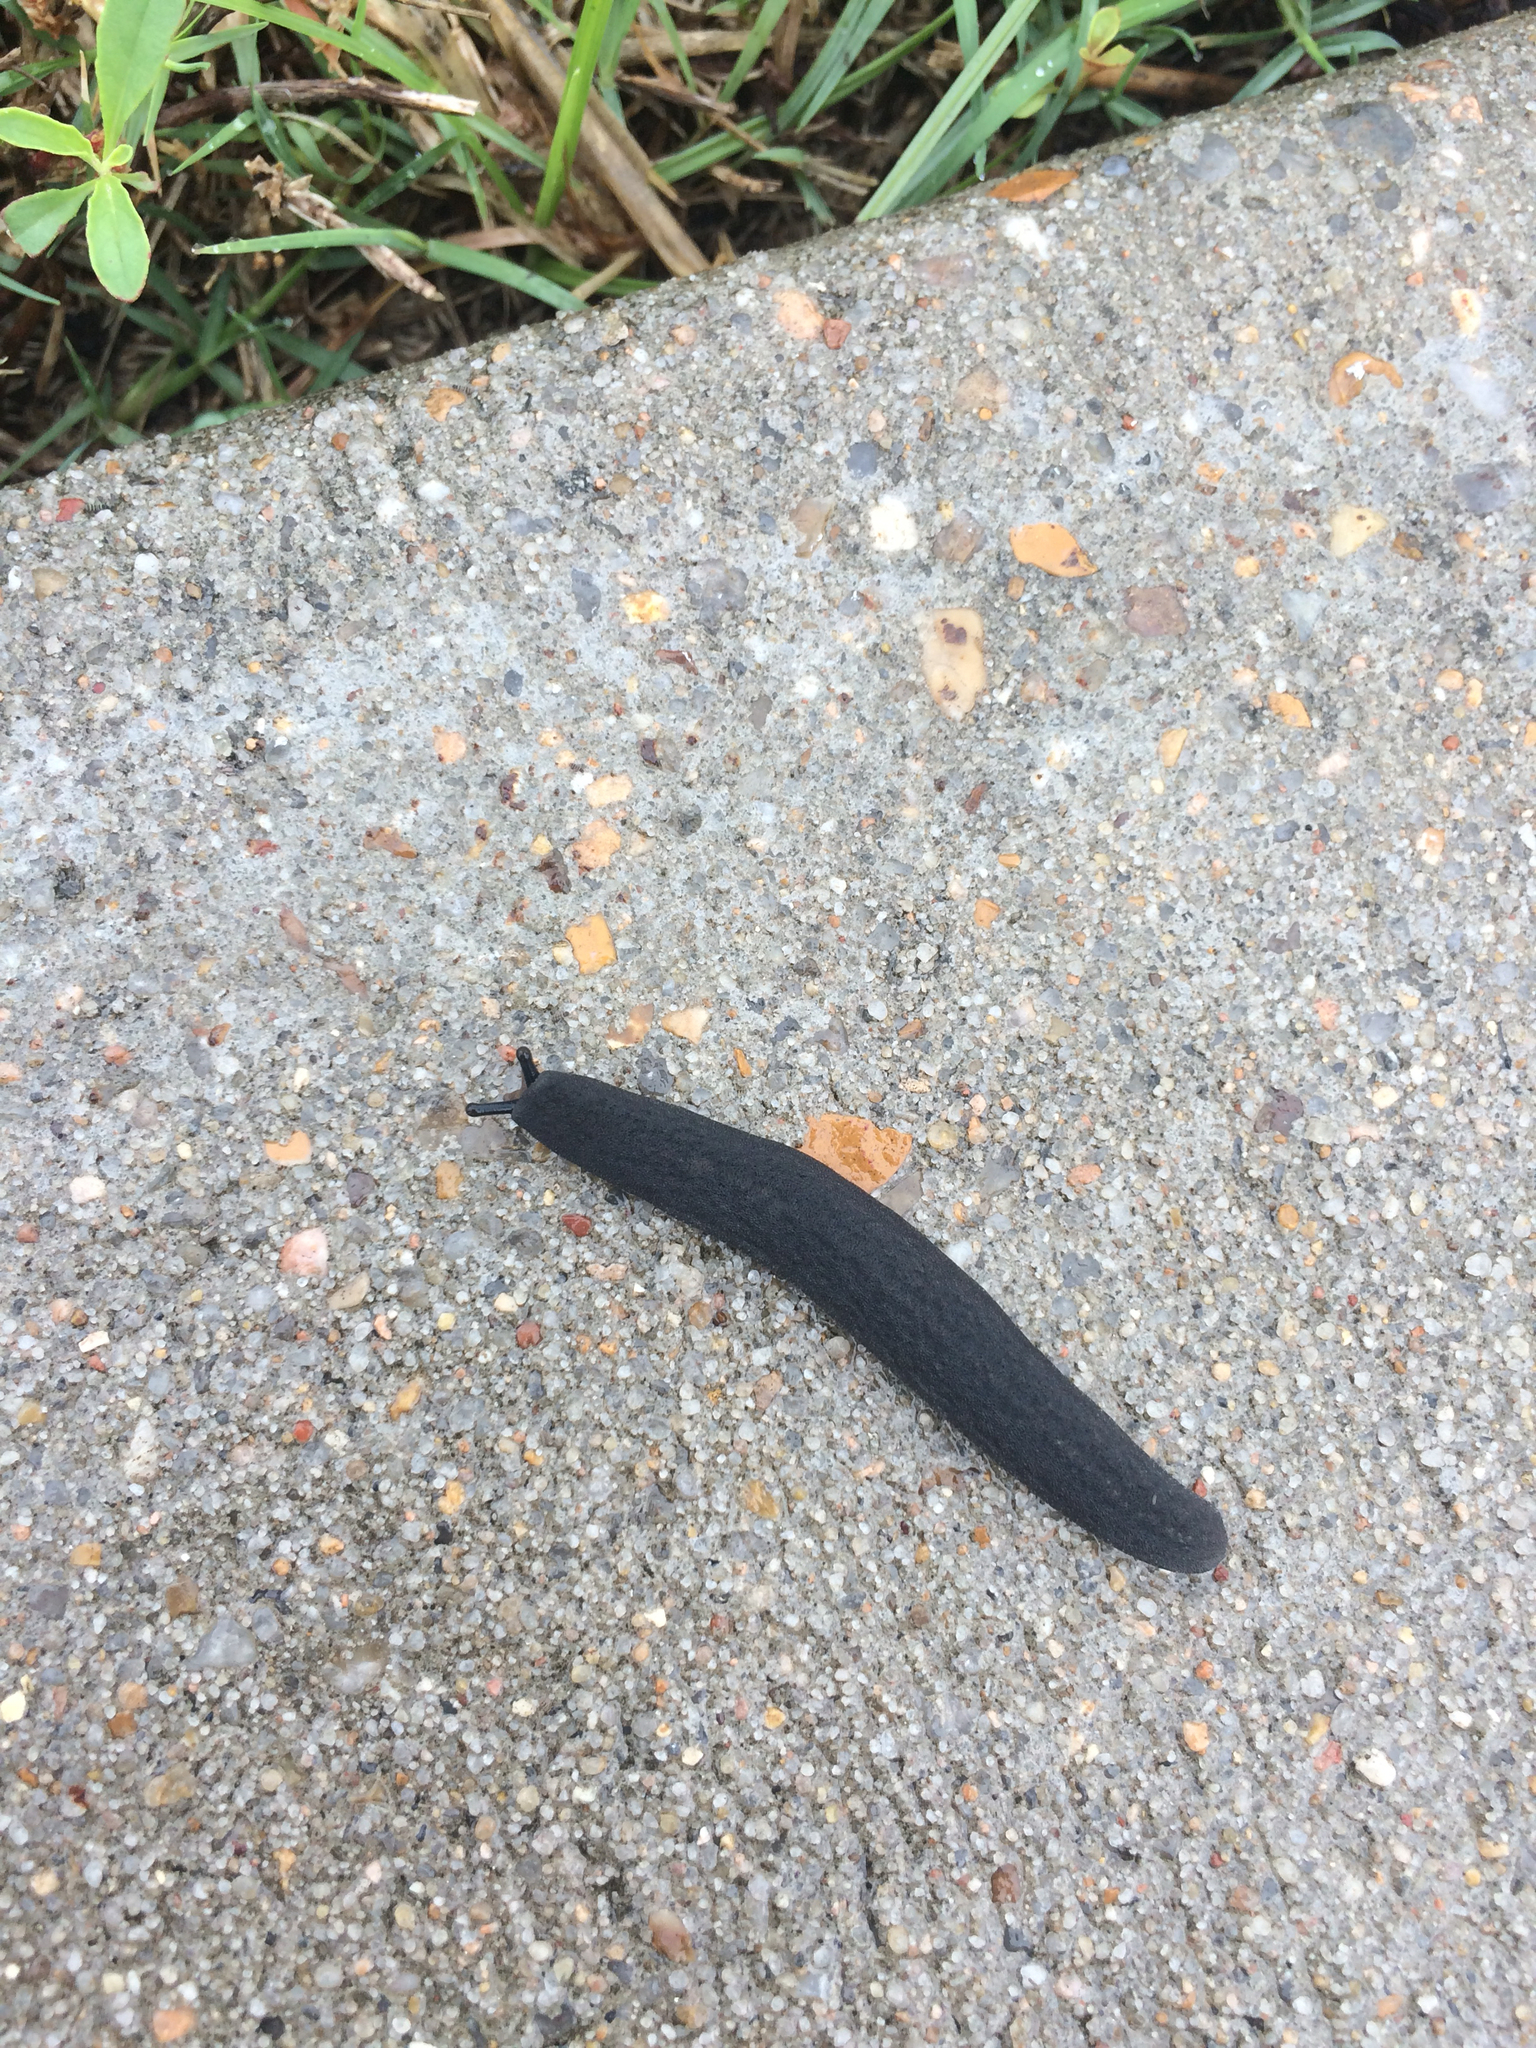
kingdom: Animalia
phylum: Mollusca
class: Gastropoda
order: Systellommatophora
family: Veronicellidae
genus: Belocaulus
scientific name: Belocaulus angustipes
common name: Black velvet leatherleaf slug
